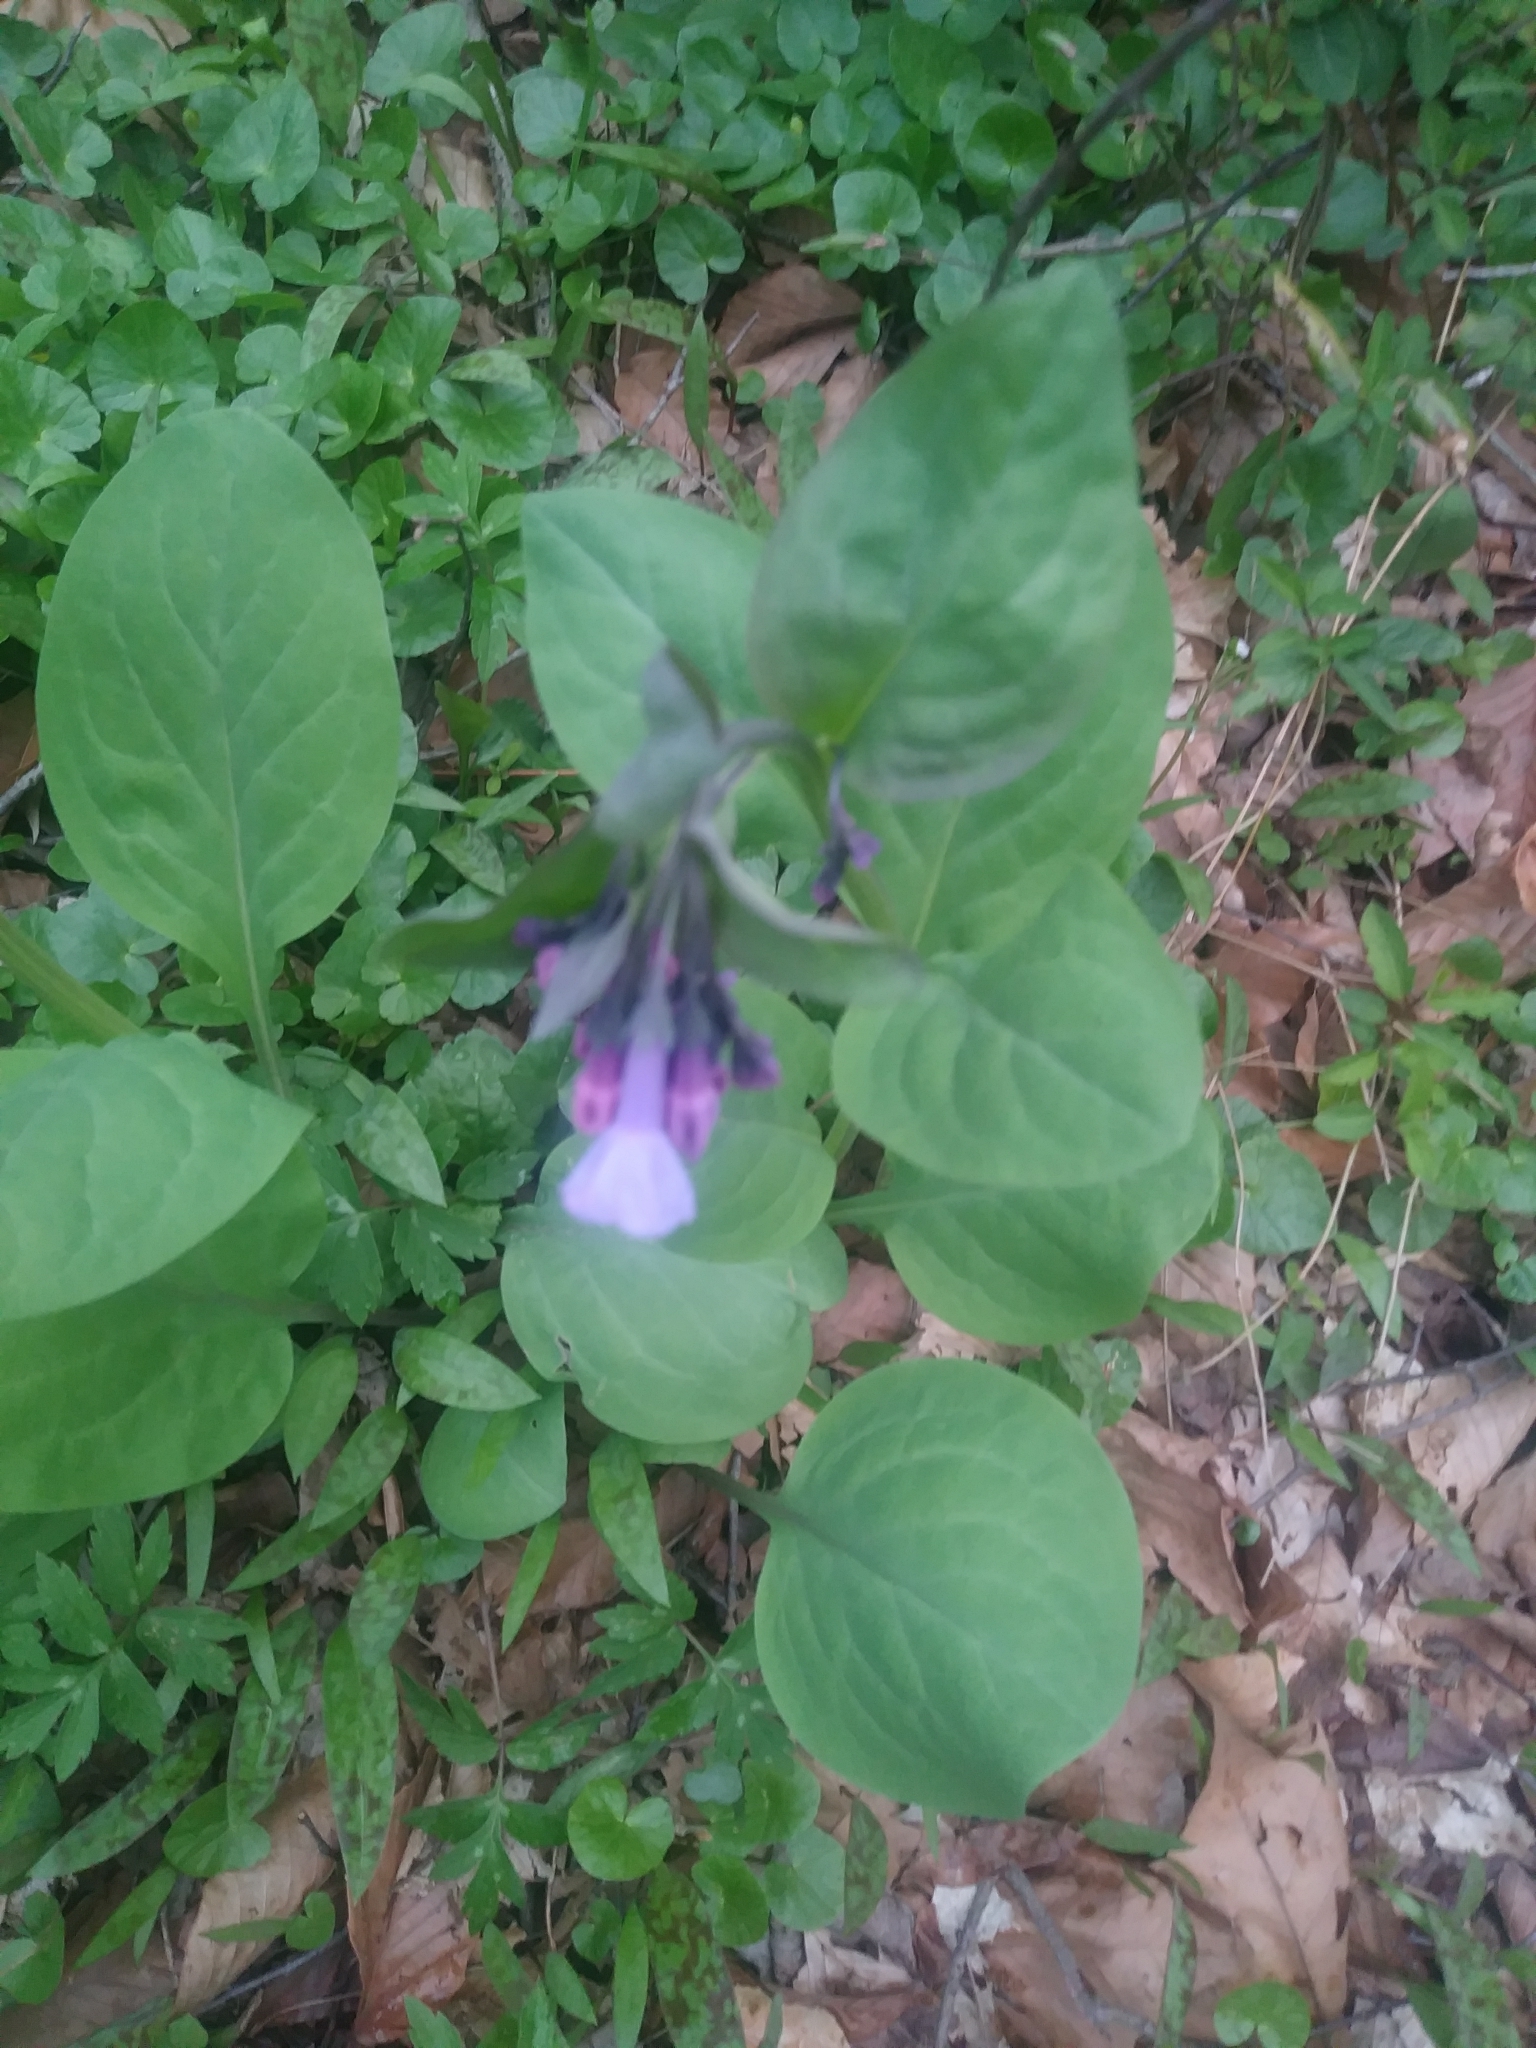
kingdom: Plantae
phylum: Tracheophyta
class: Magnoliopsida
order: Boraginales
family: Boraginaceae
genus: Mertensia
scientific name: Mertensia virginica
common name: Virginia bluebells
